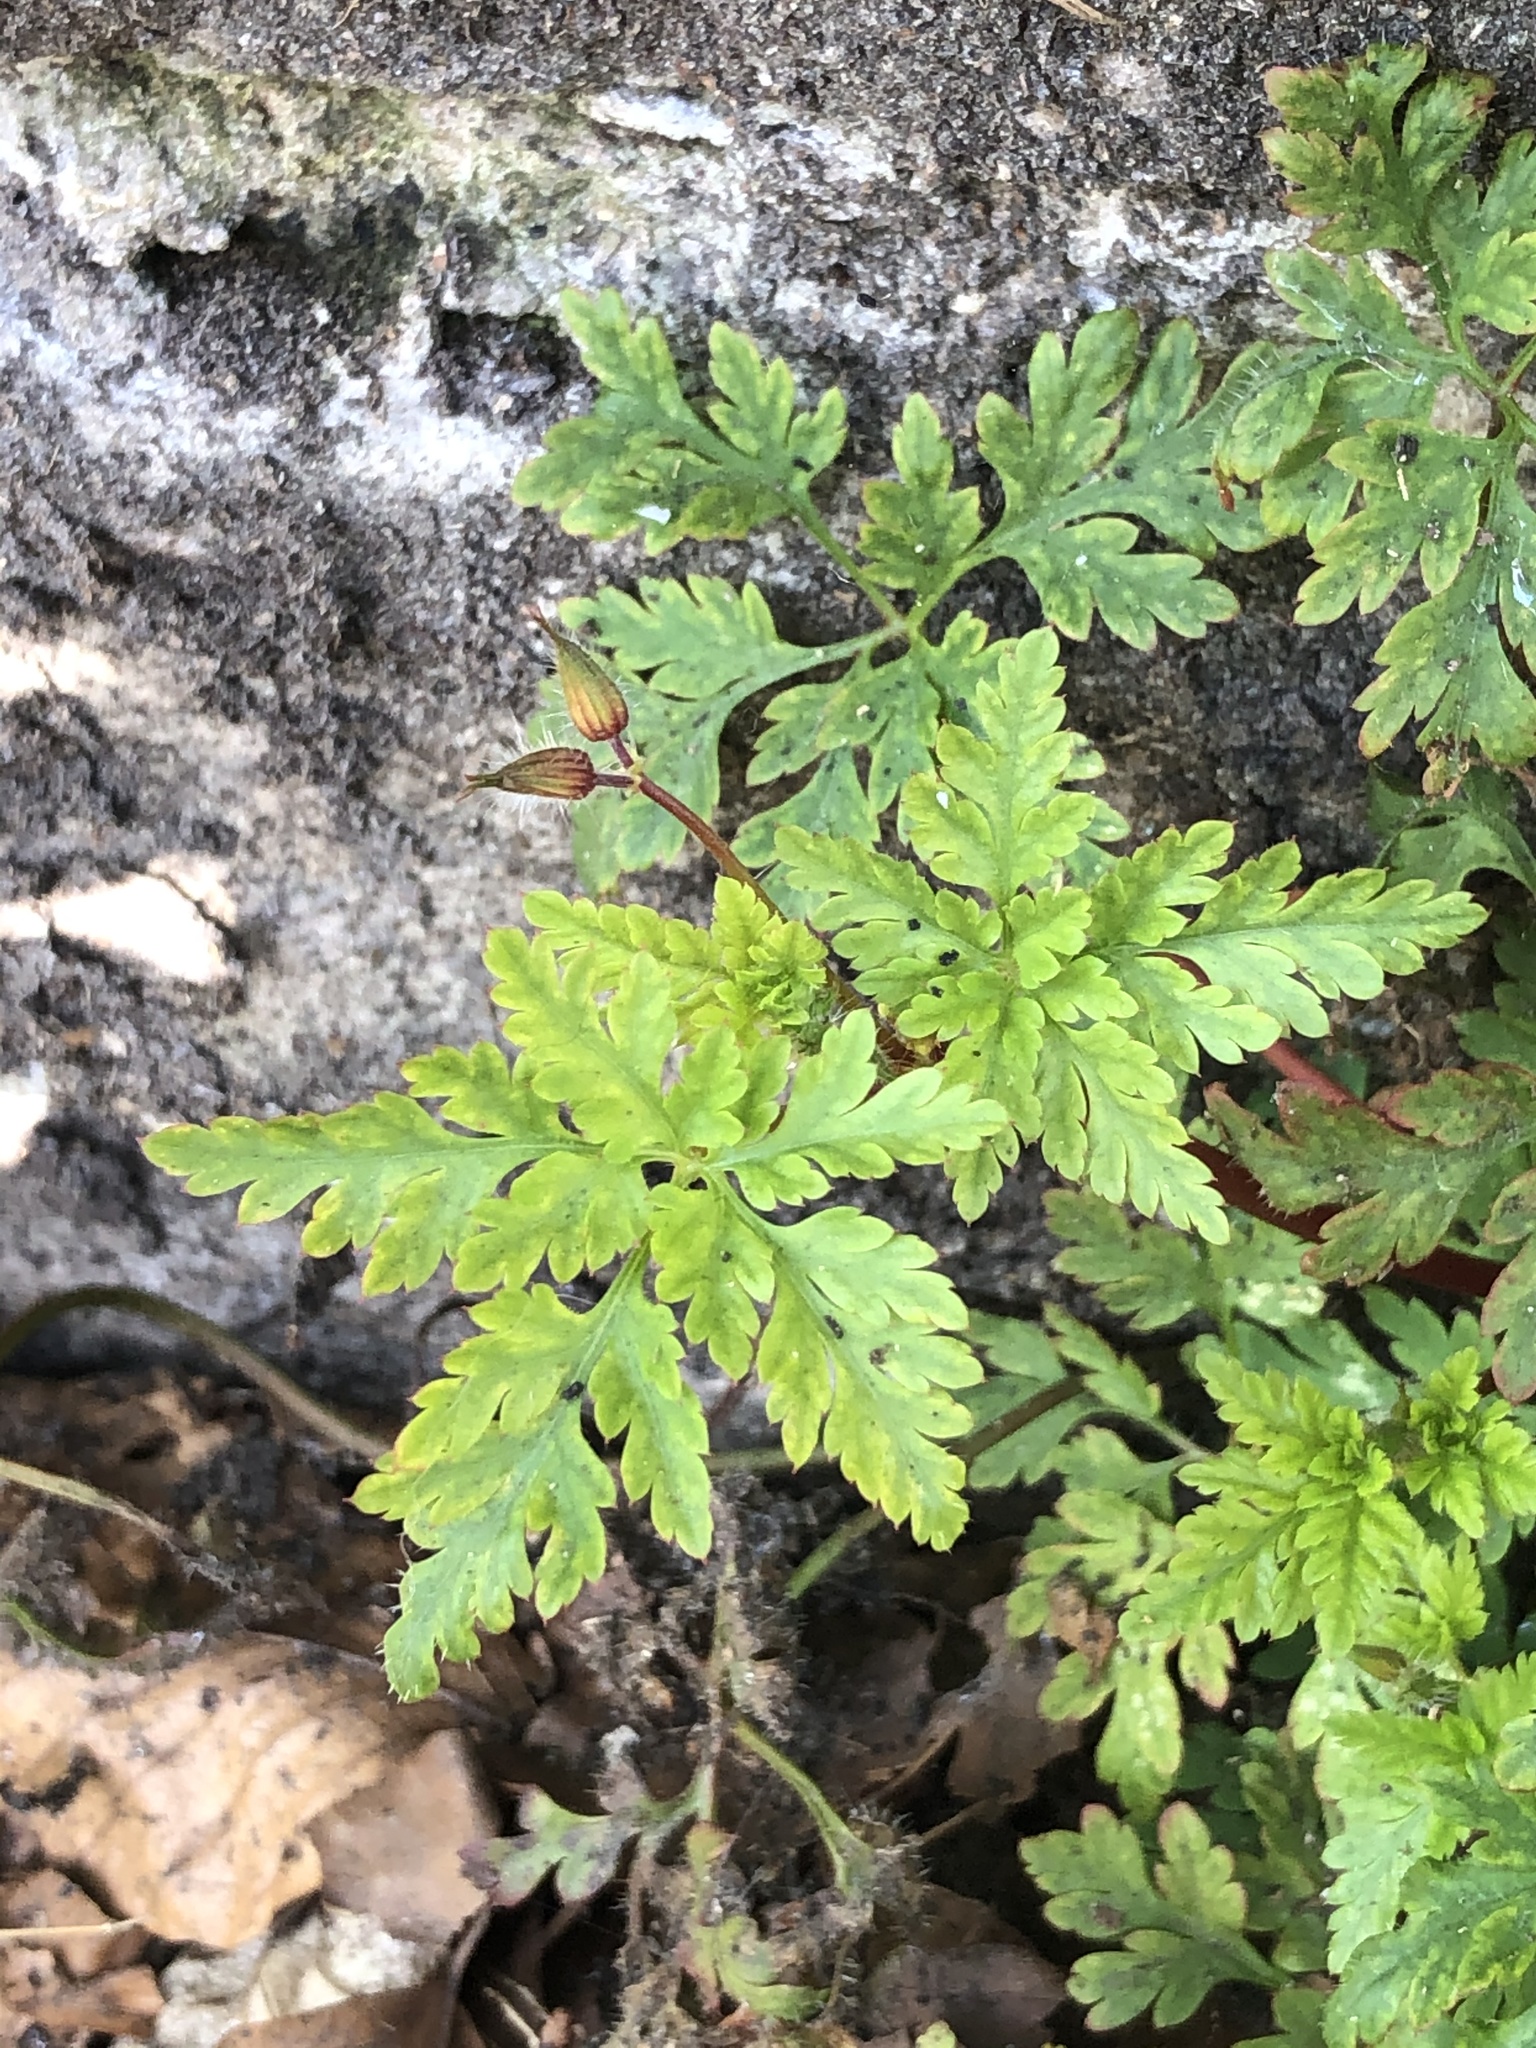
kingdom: Plantae
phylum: Tracheophyta
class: Magnoliopsida
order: Geraniales
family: Geraniaceae
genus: Geranium
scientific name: Geranium robertianum
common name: Herb-robert
